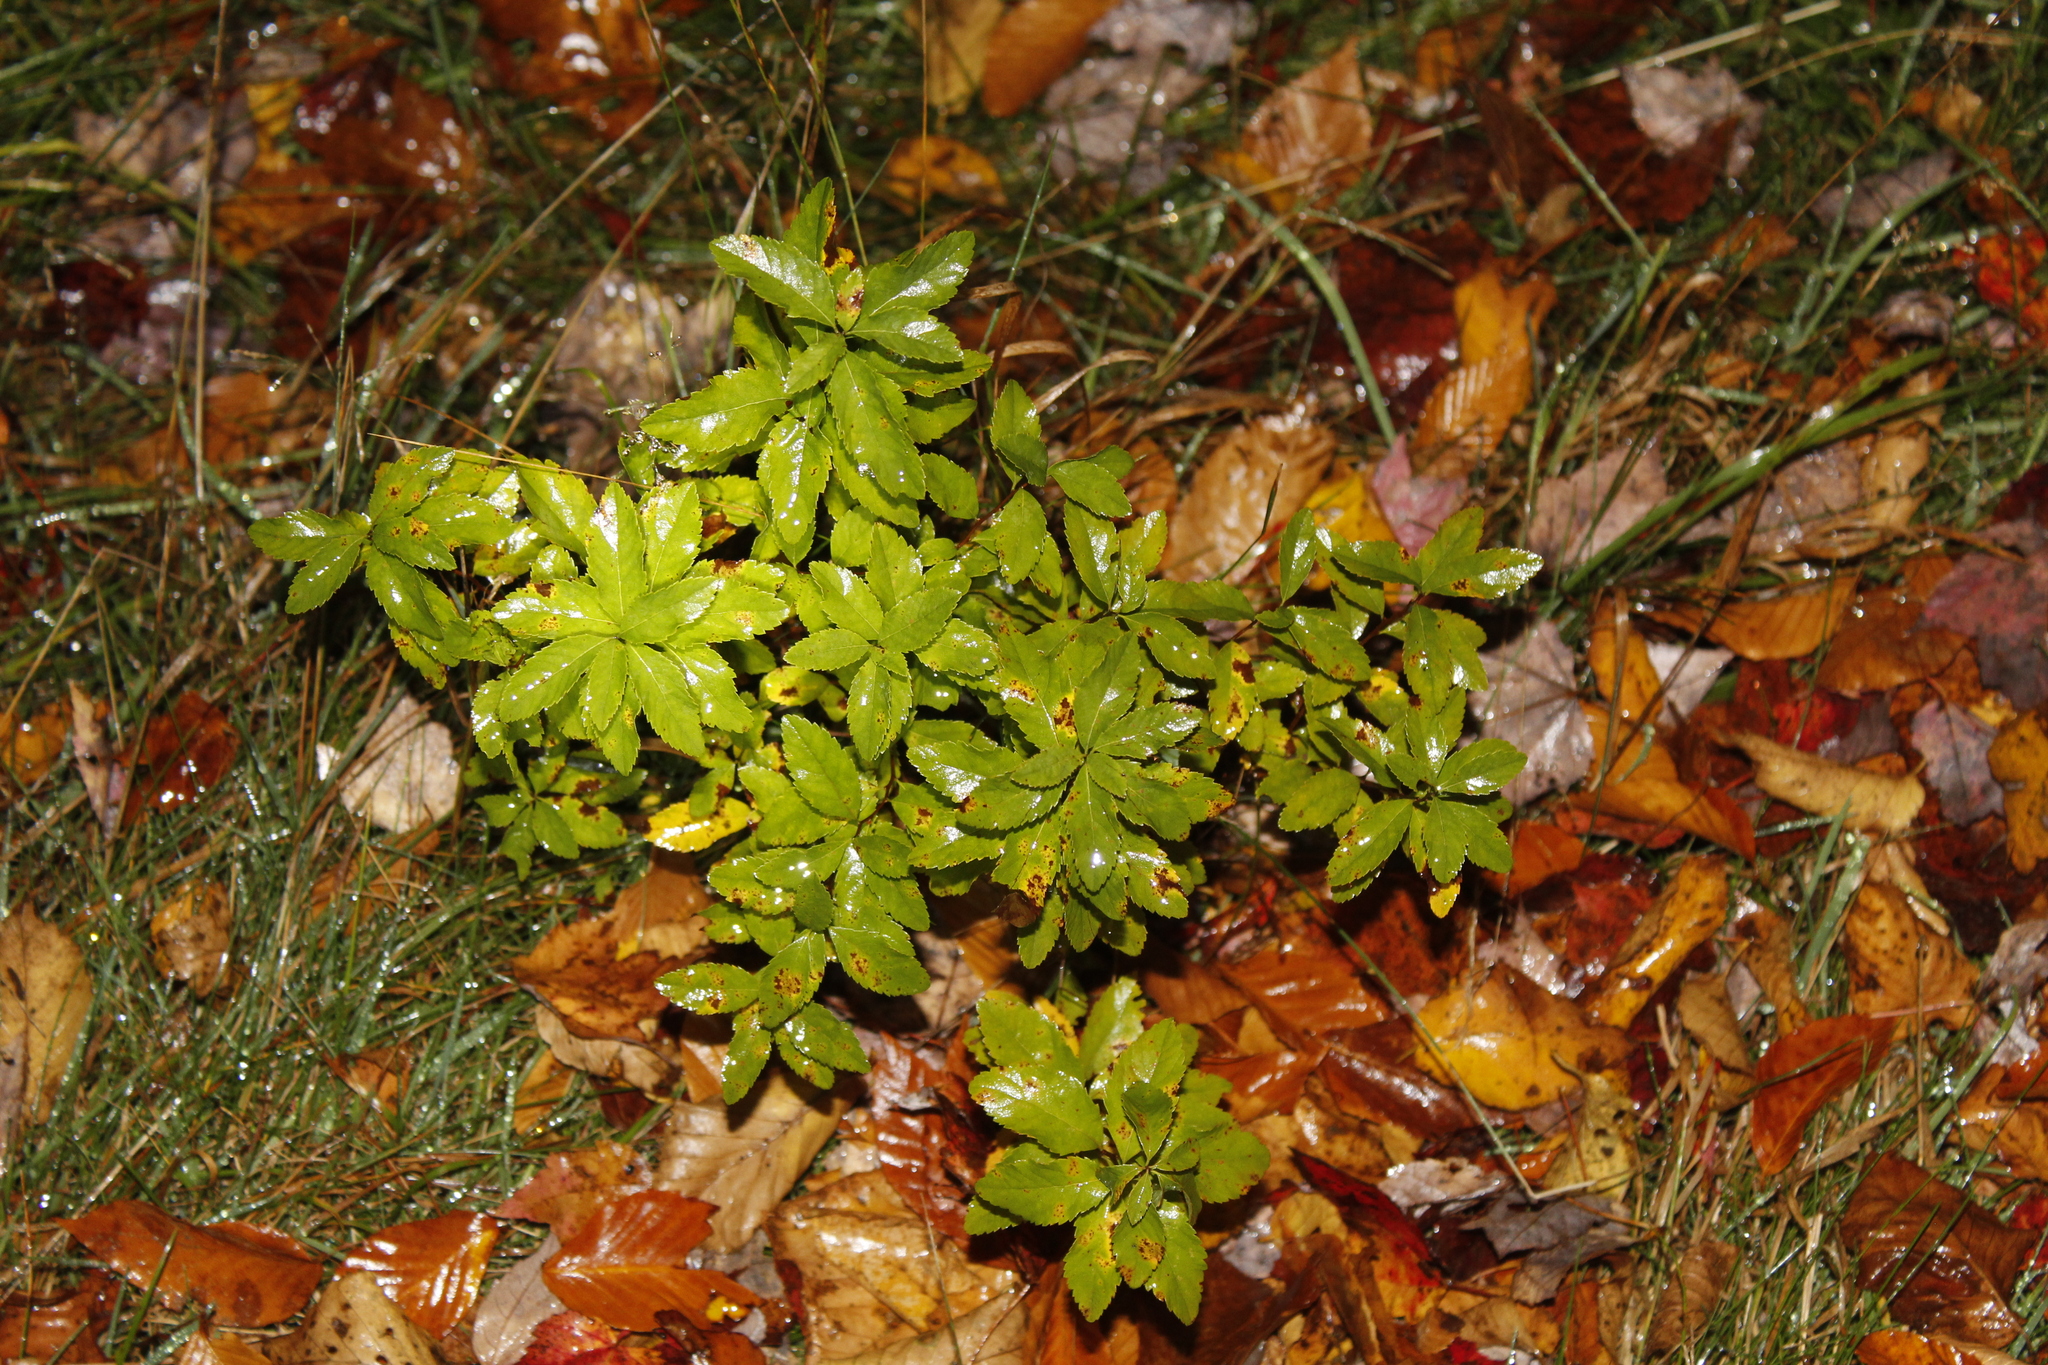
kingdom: Plantae
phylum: Tracheophyta
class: Magnoliopsida
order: Rosales
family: Rosaceae
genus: Spiraea
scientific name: Spiraea alba
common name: Pale bridewort
